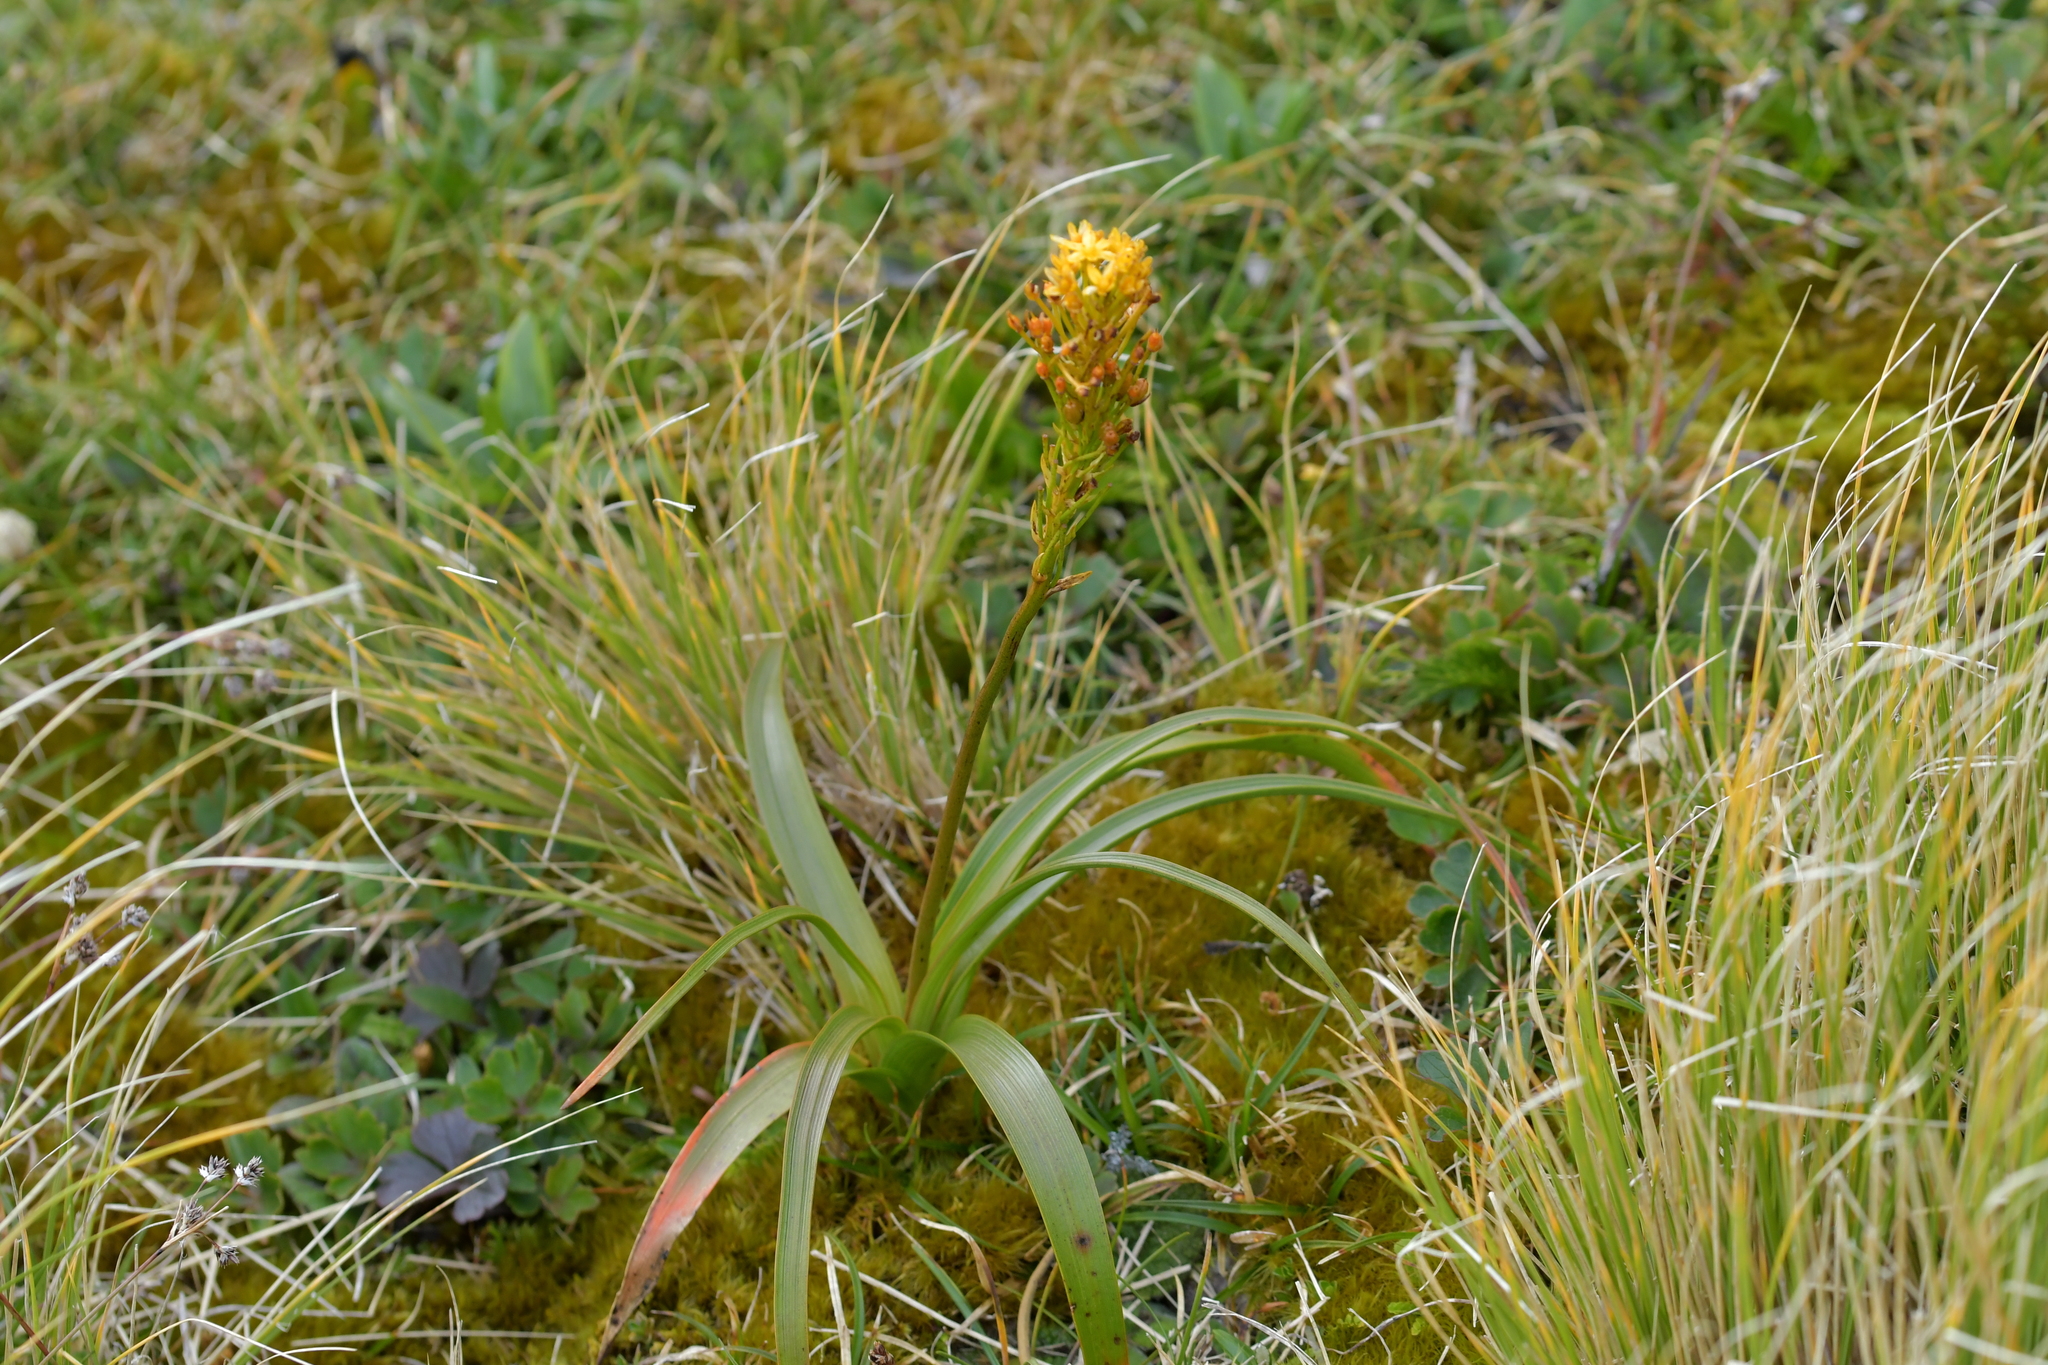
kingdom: Plantae
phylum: Tracheophyta
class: Liliopsida
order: Asparagales
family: Asphodelaceae
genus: Bulbinella
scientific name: Bulbinella gibbsii
